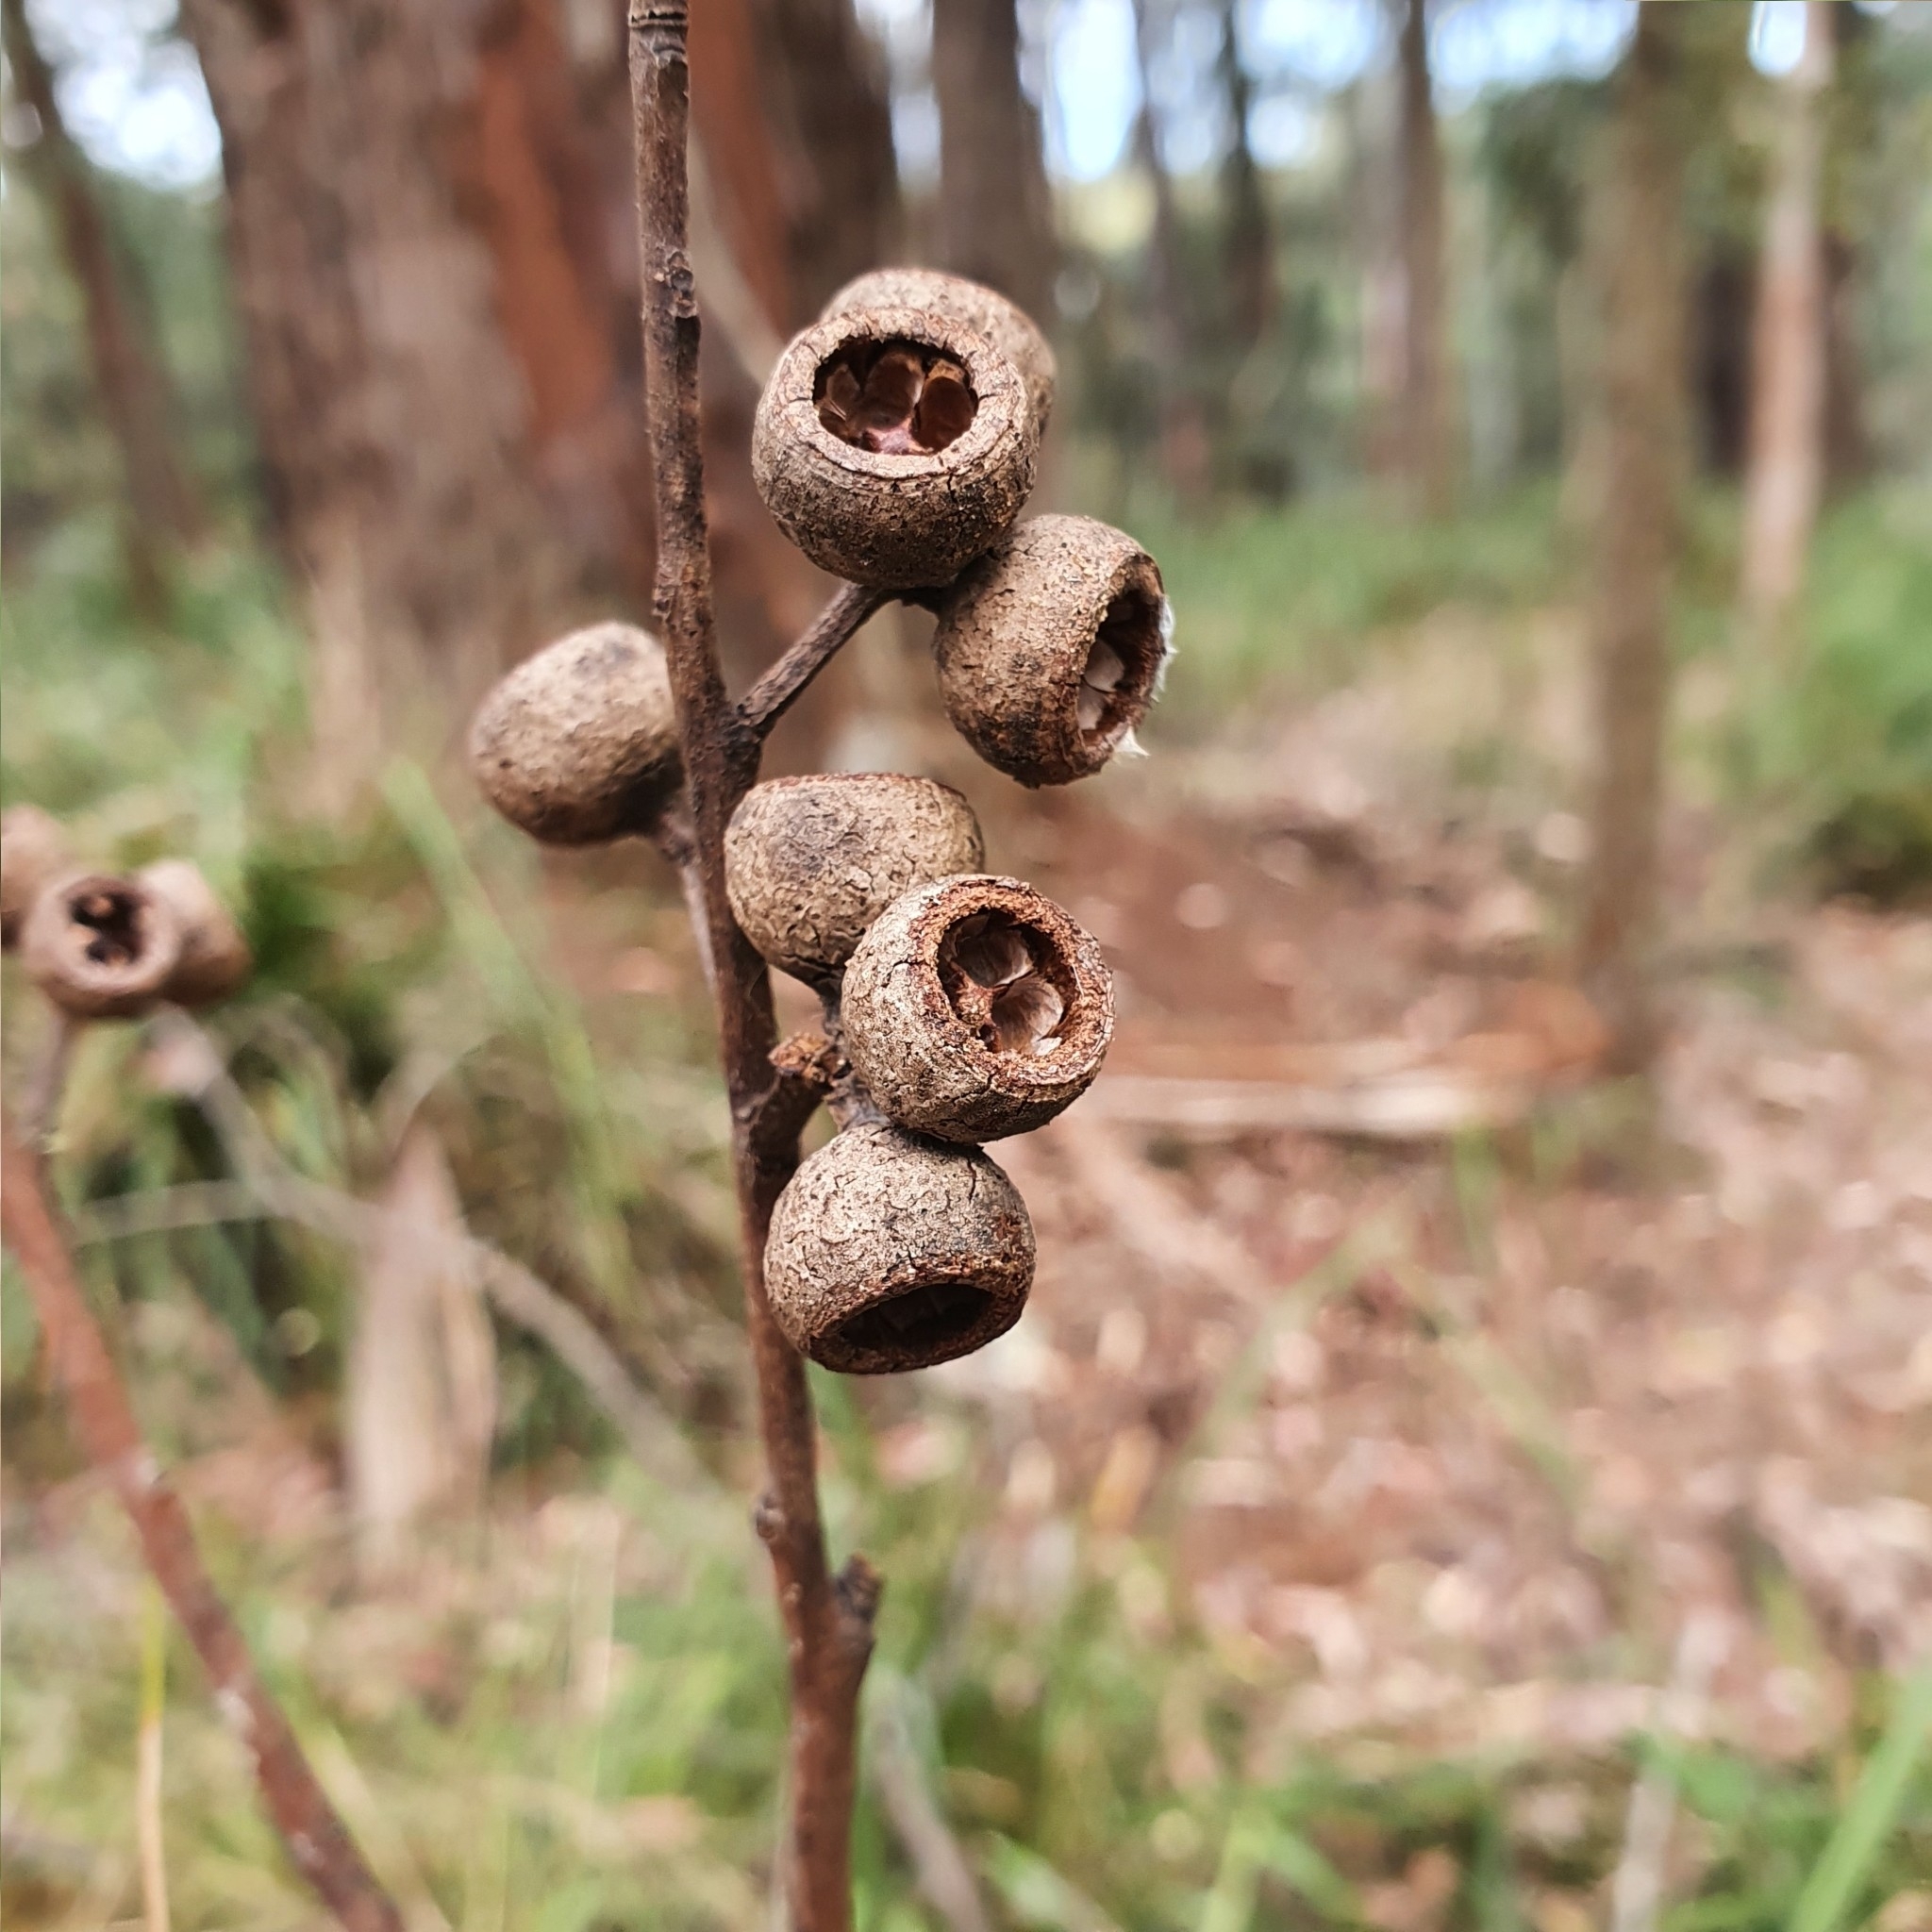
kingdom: Plantae
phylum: Tracheophyta
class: Magnoliopsida
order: Myrtales
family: Myrtaceae
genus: Eucalyptus
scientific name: Eucalyptus pilularis
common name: Blackbutt
